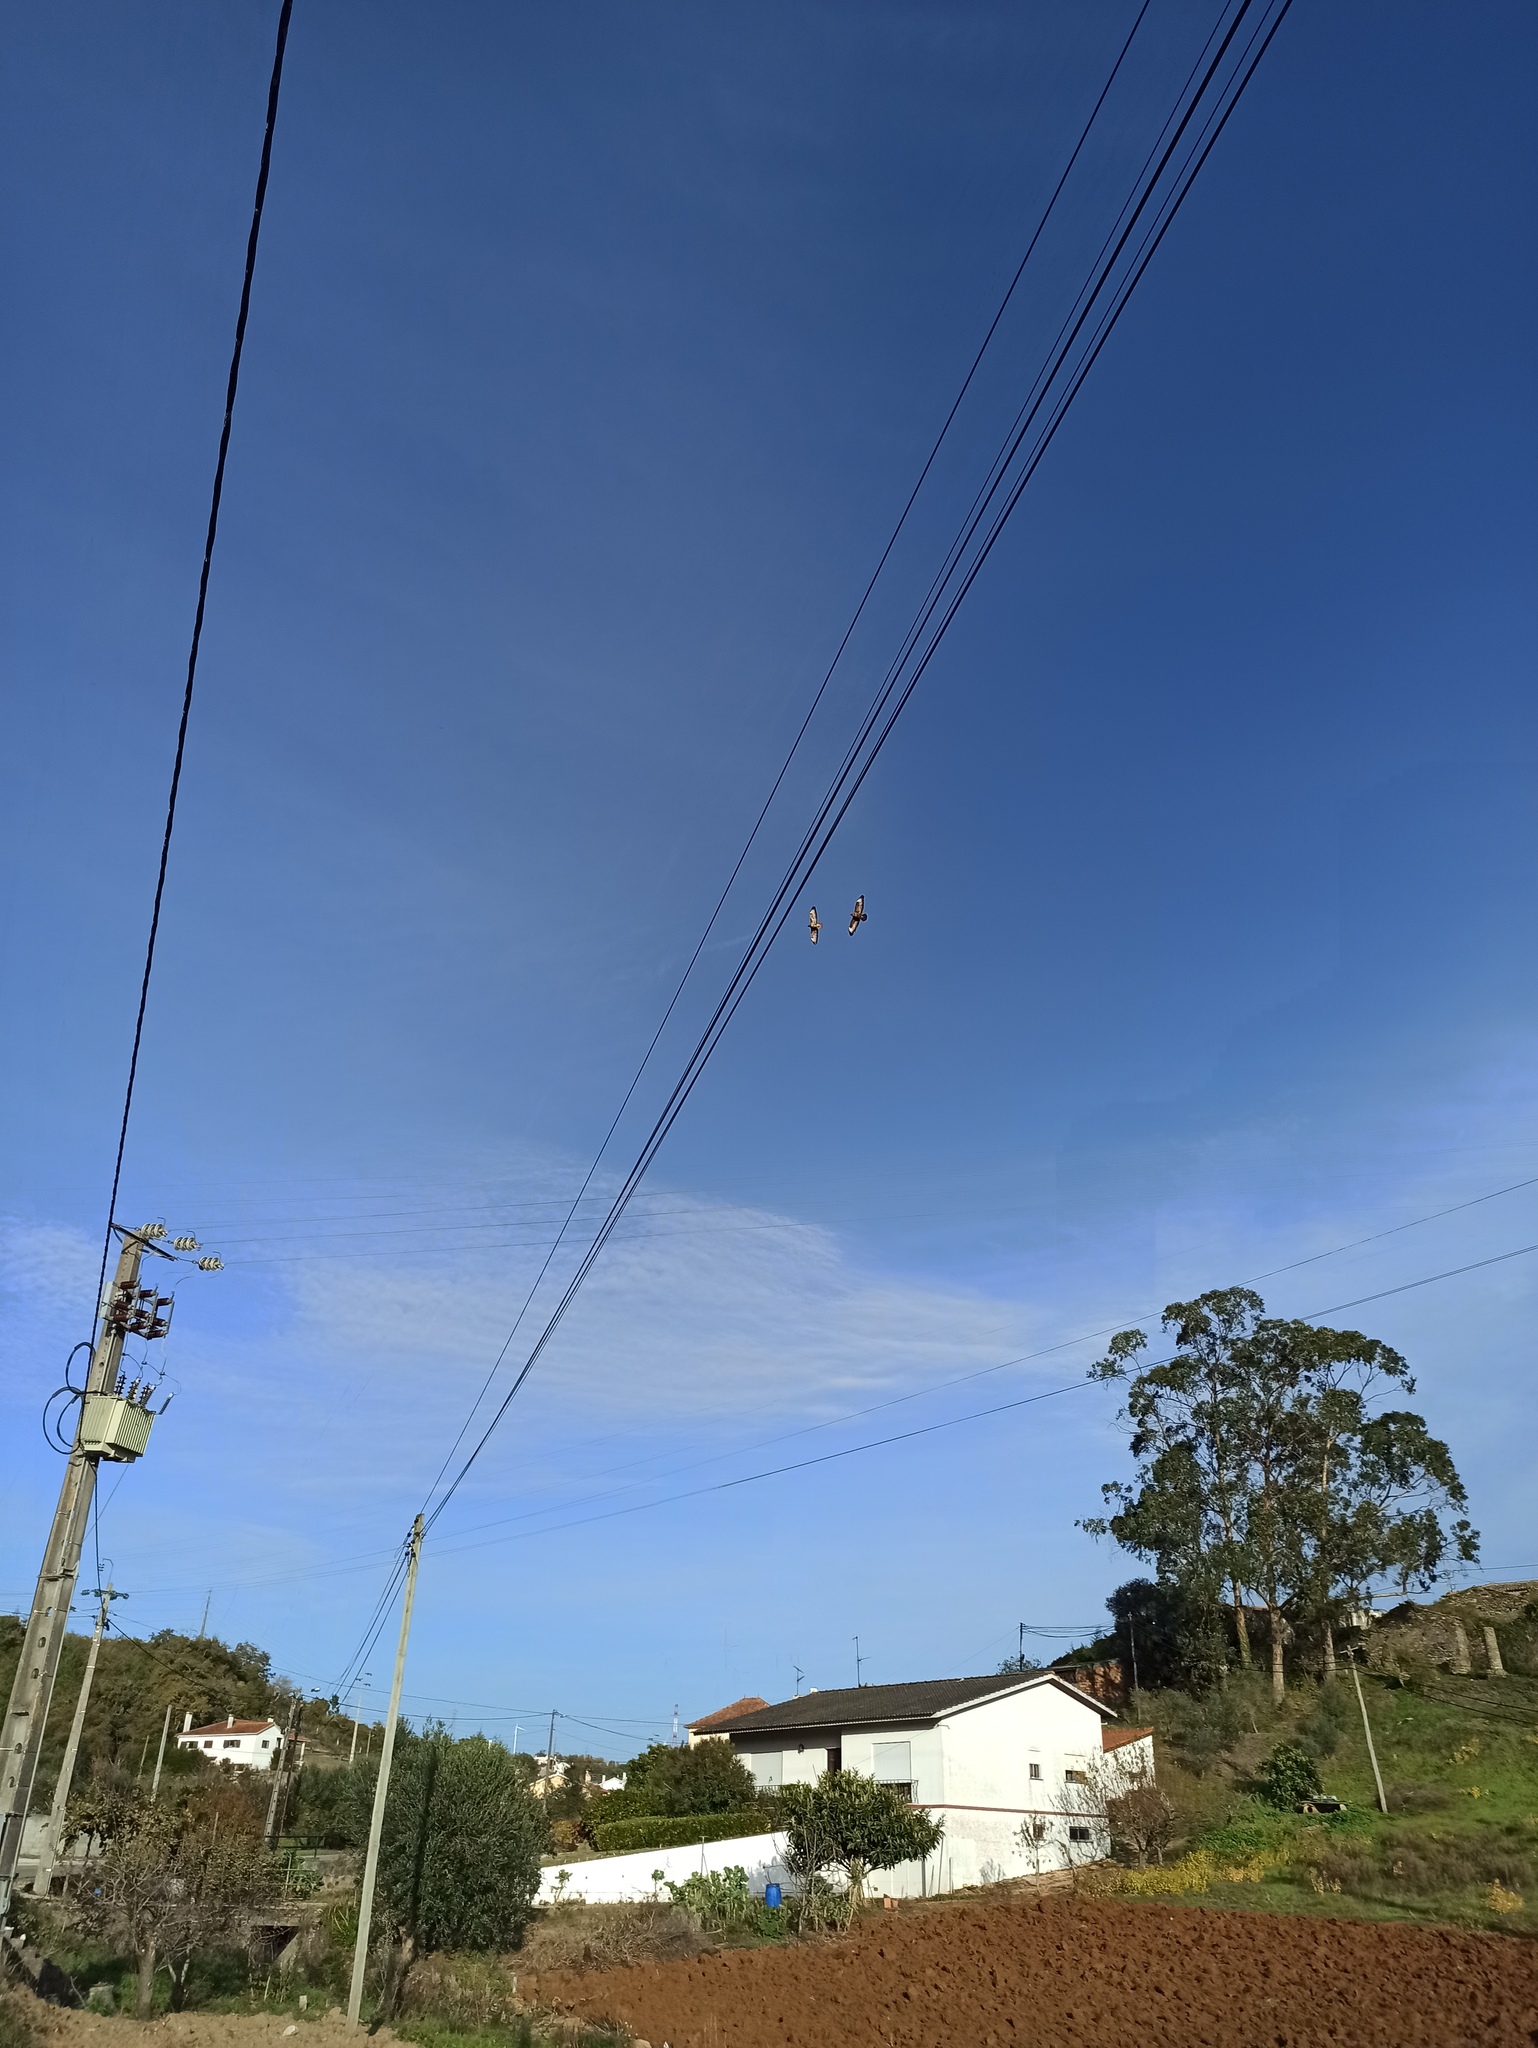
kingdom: Animalia
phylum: Chordata
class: Aves
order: Accipitriformes
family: Accipitridae
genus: Buteo
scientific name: Buteo buteo
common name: Common buzzard
